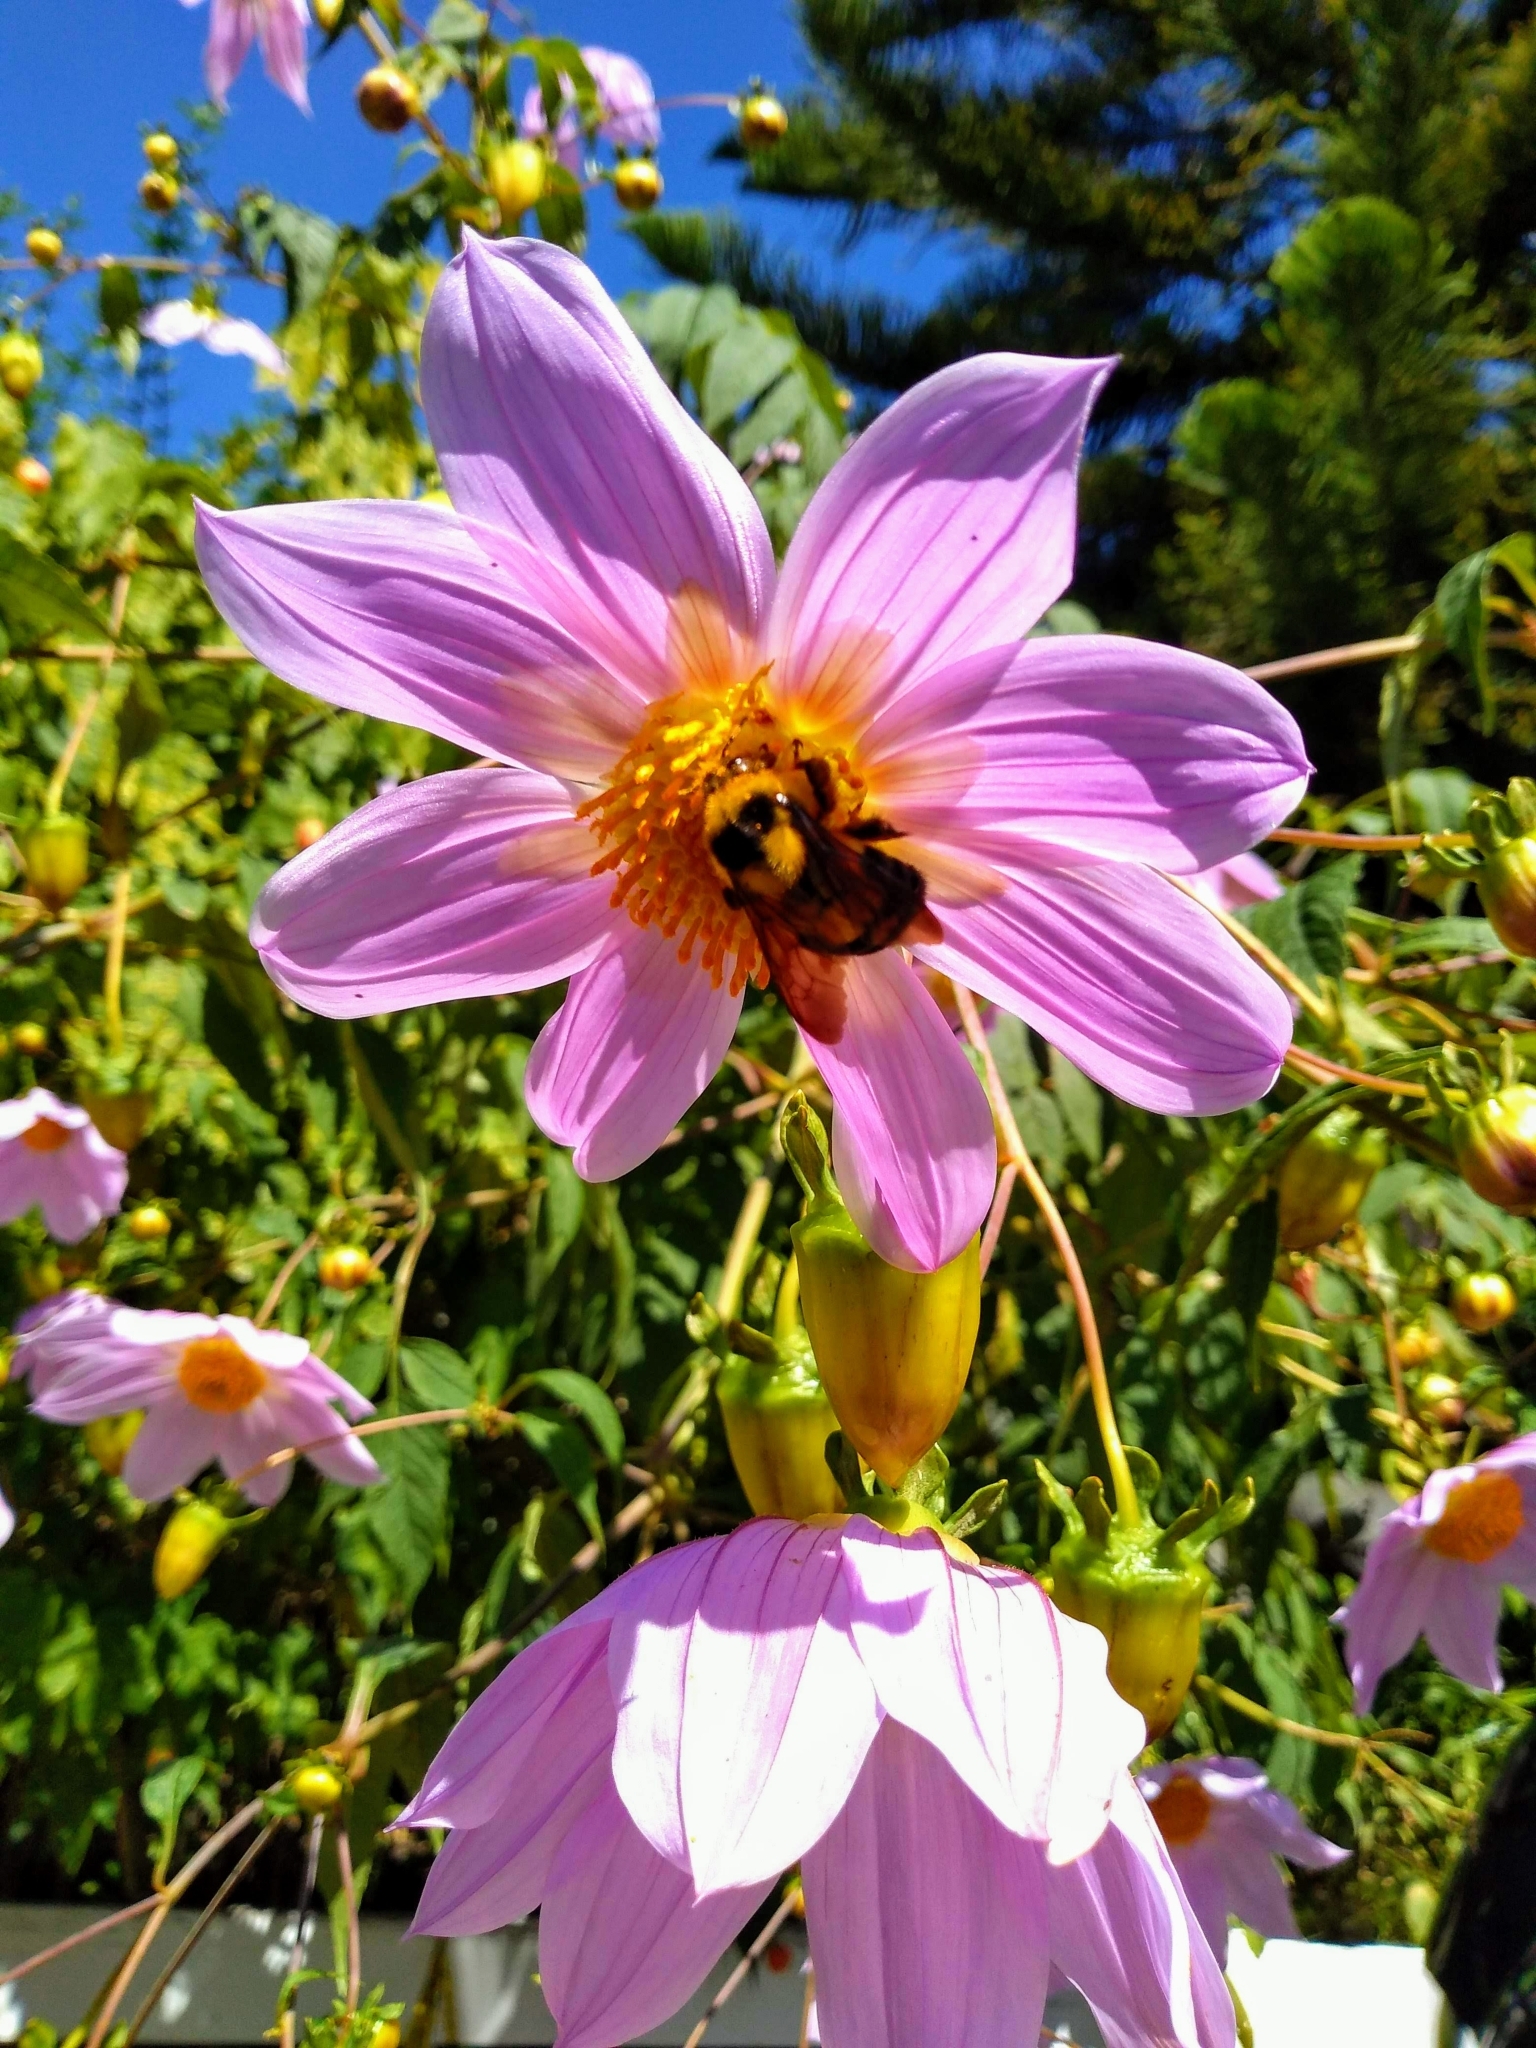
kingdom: Animalia
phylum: Arthropoda
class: Insecta
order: Hymenoptera
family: Apidae
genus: Bombus
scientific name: Bombus wilmattae
